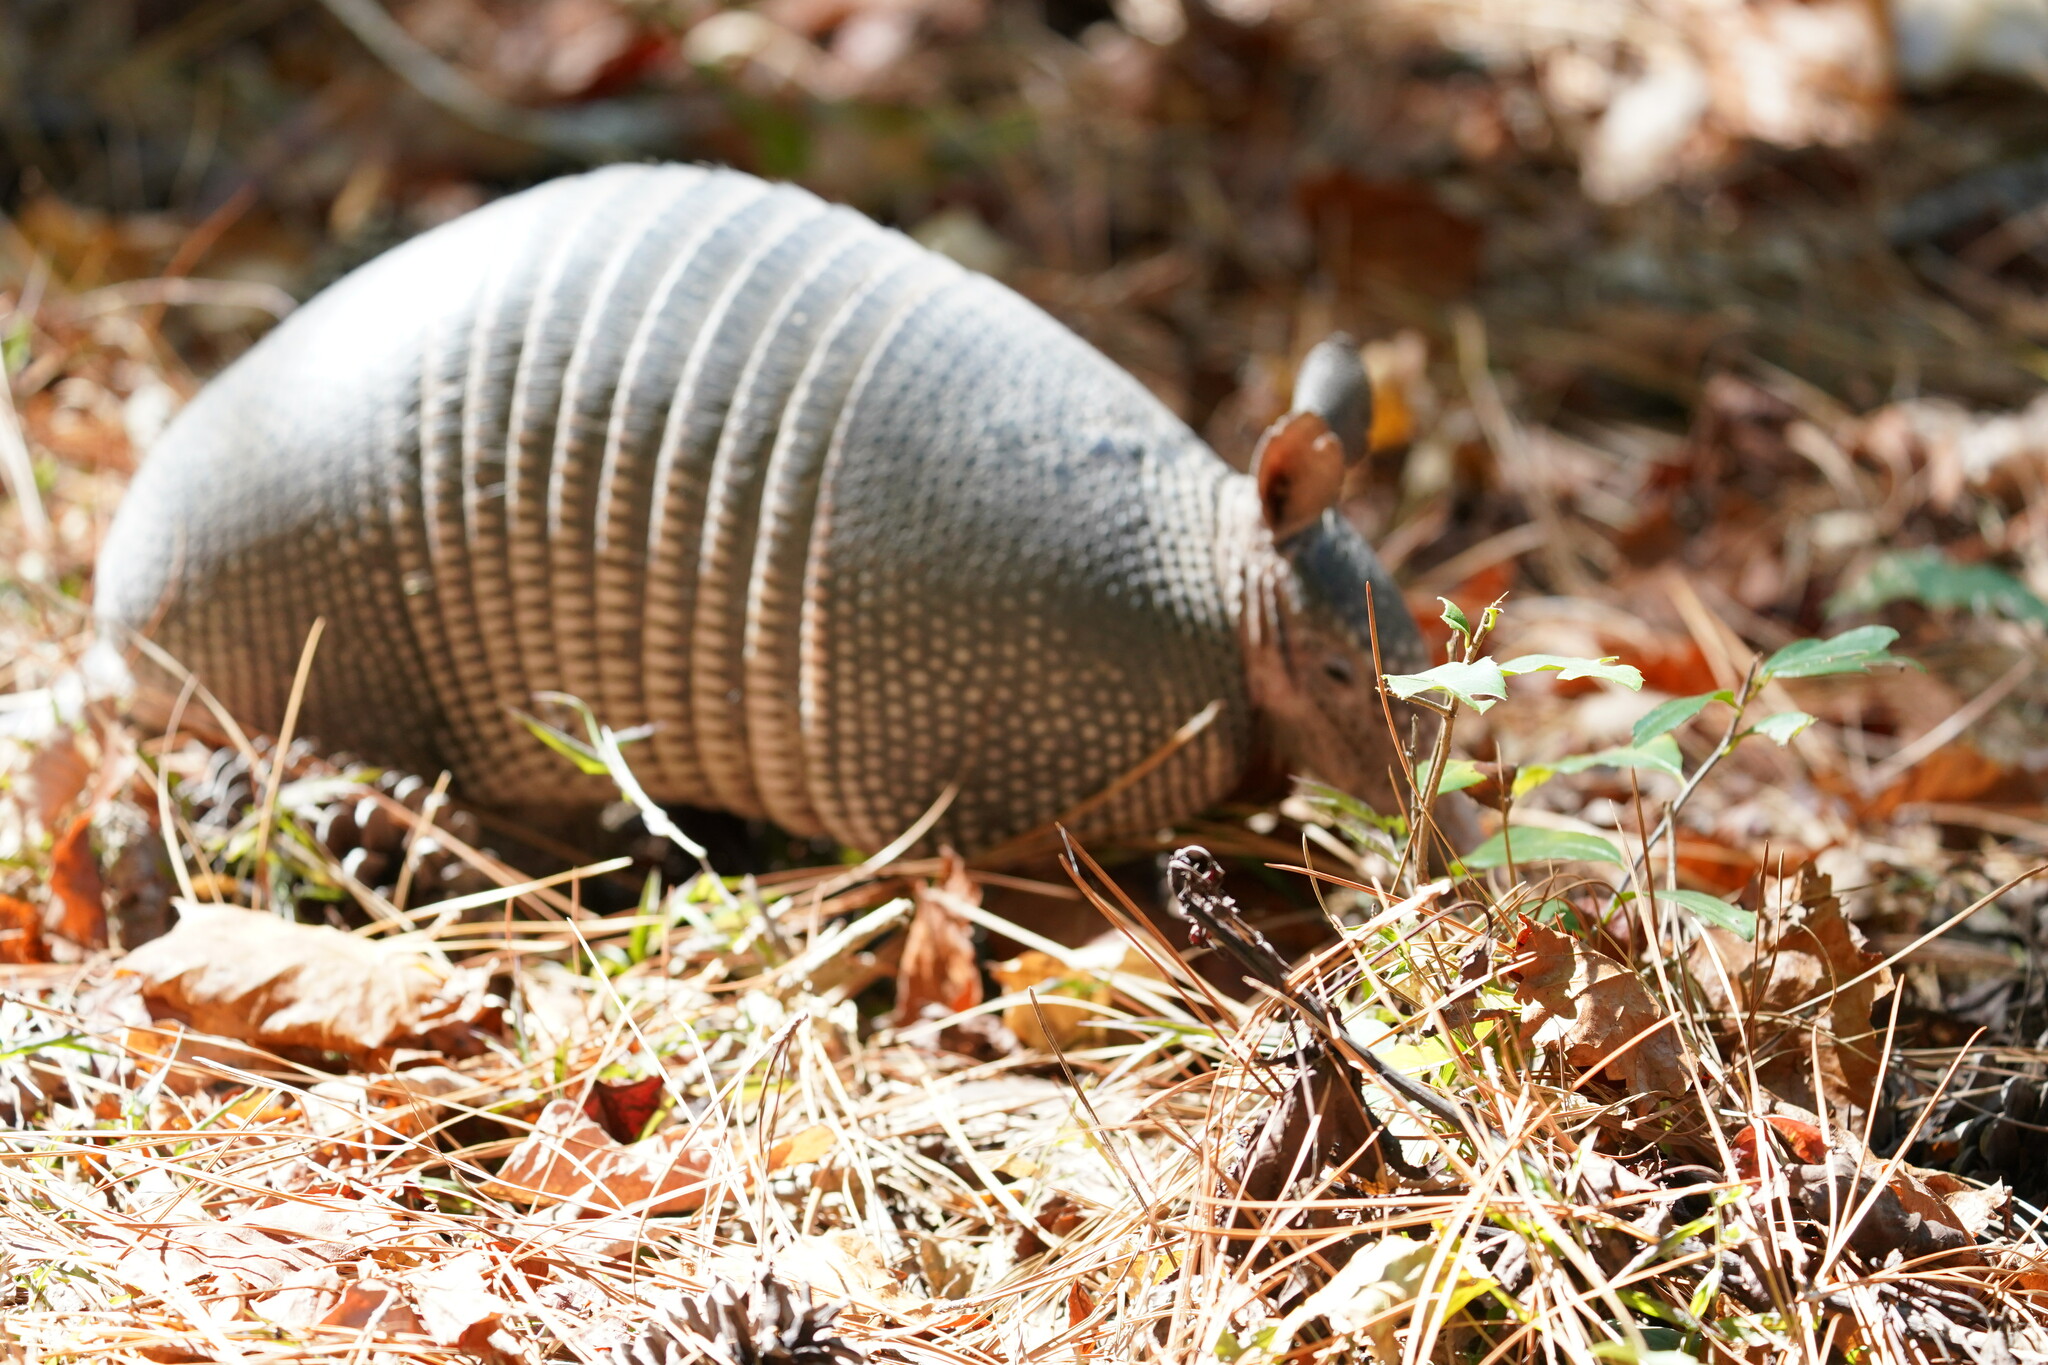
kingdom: Animalia
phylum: Chordata
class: Mammalia
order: Cingulata
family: Dasypodidae
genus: Dasypus
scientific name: Dasypus novemcinctus
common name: Nine-banded armadillo
